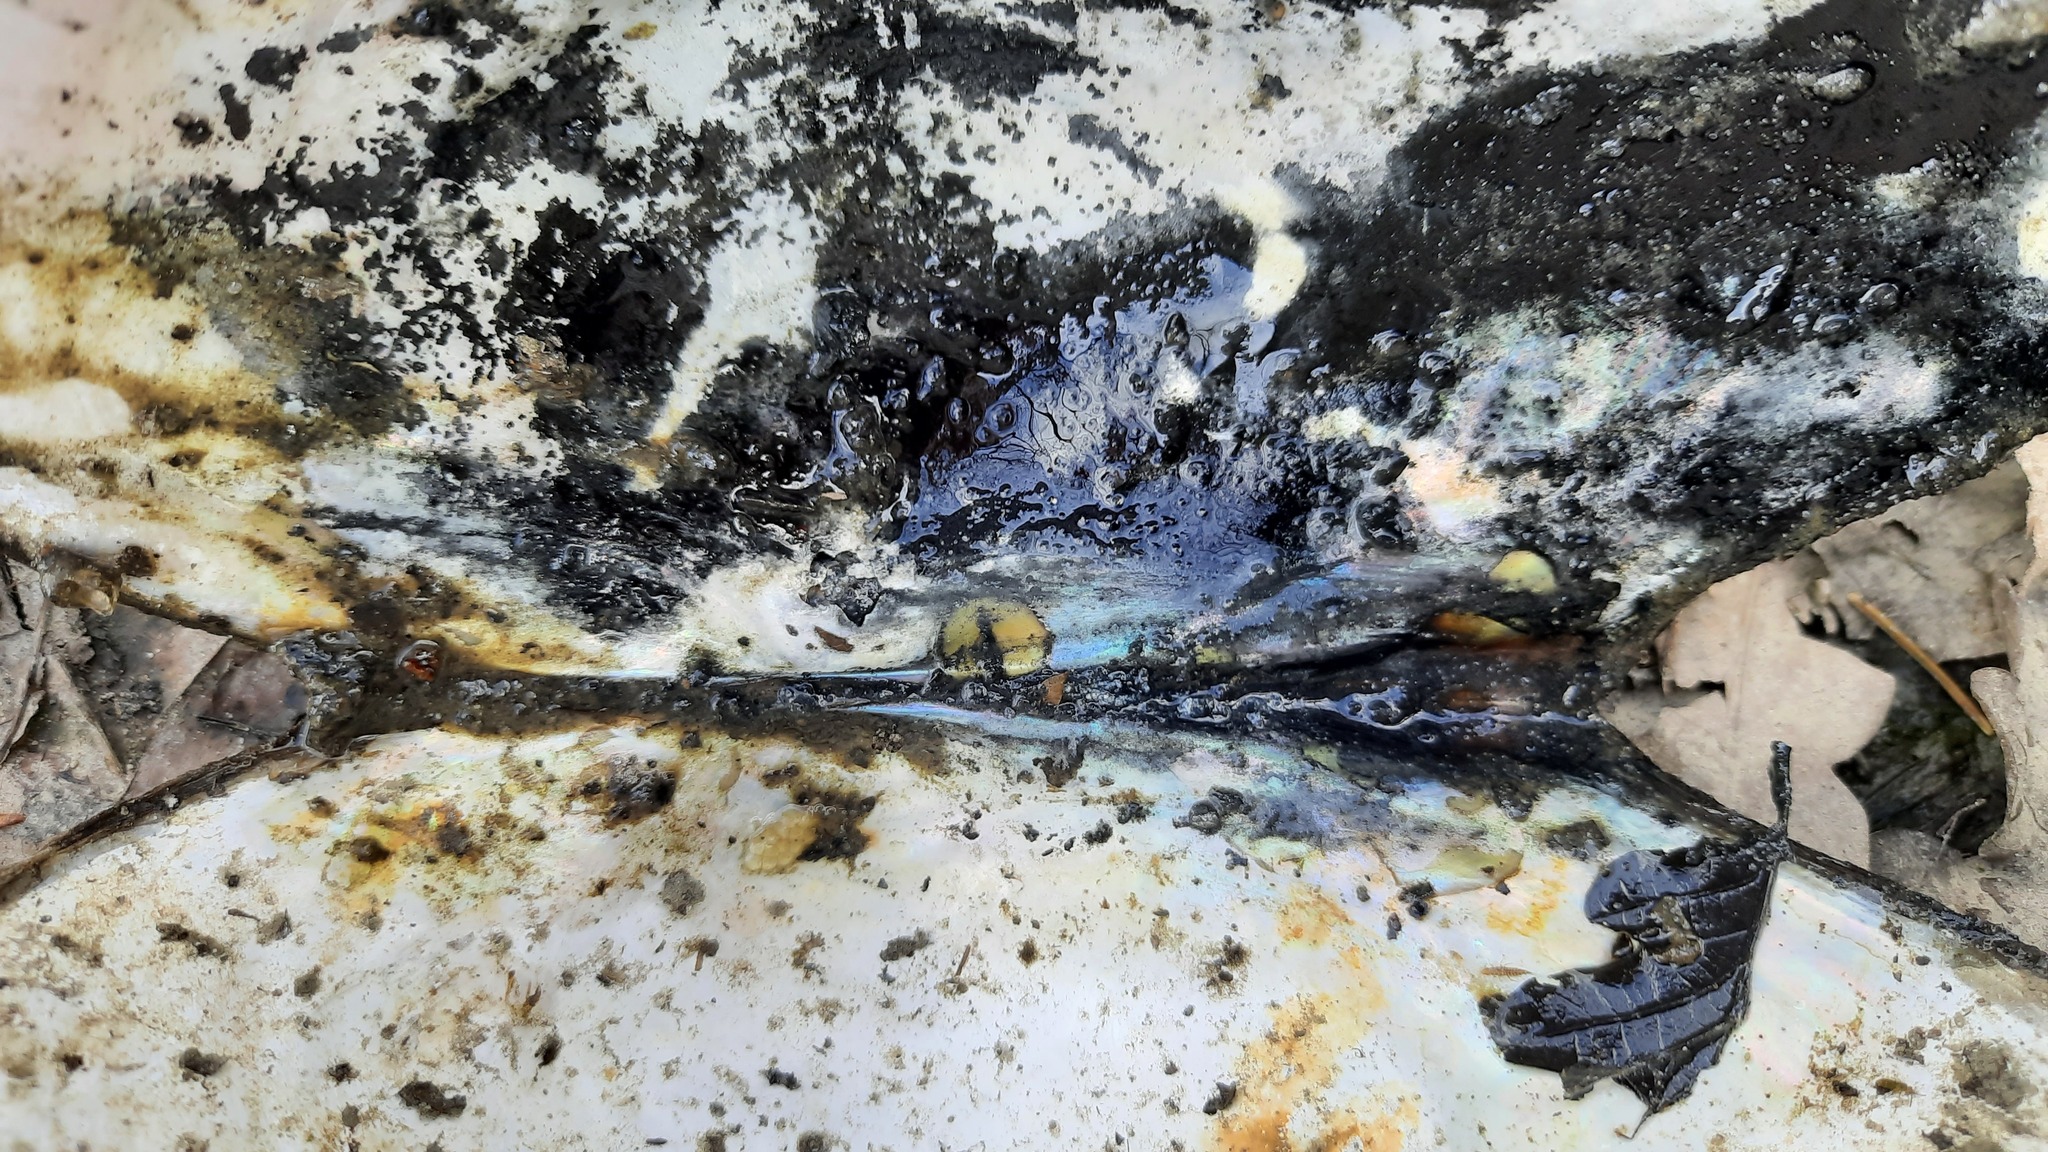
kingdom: Animalia
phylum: Mollusca
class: Bivalvia
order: Unionida
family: Unionidae
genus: Sinanodonta
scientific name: Sinanodonta woodiana
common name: Chinese pond mussel
